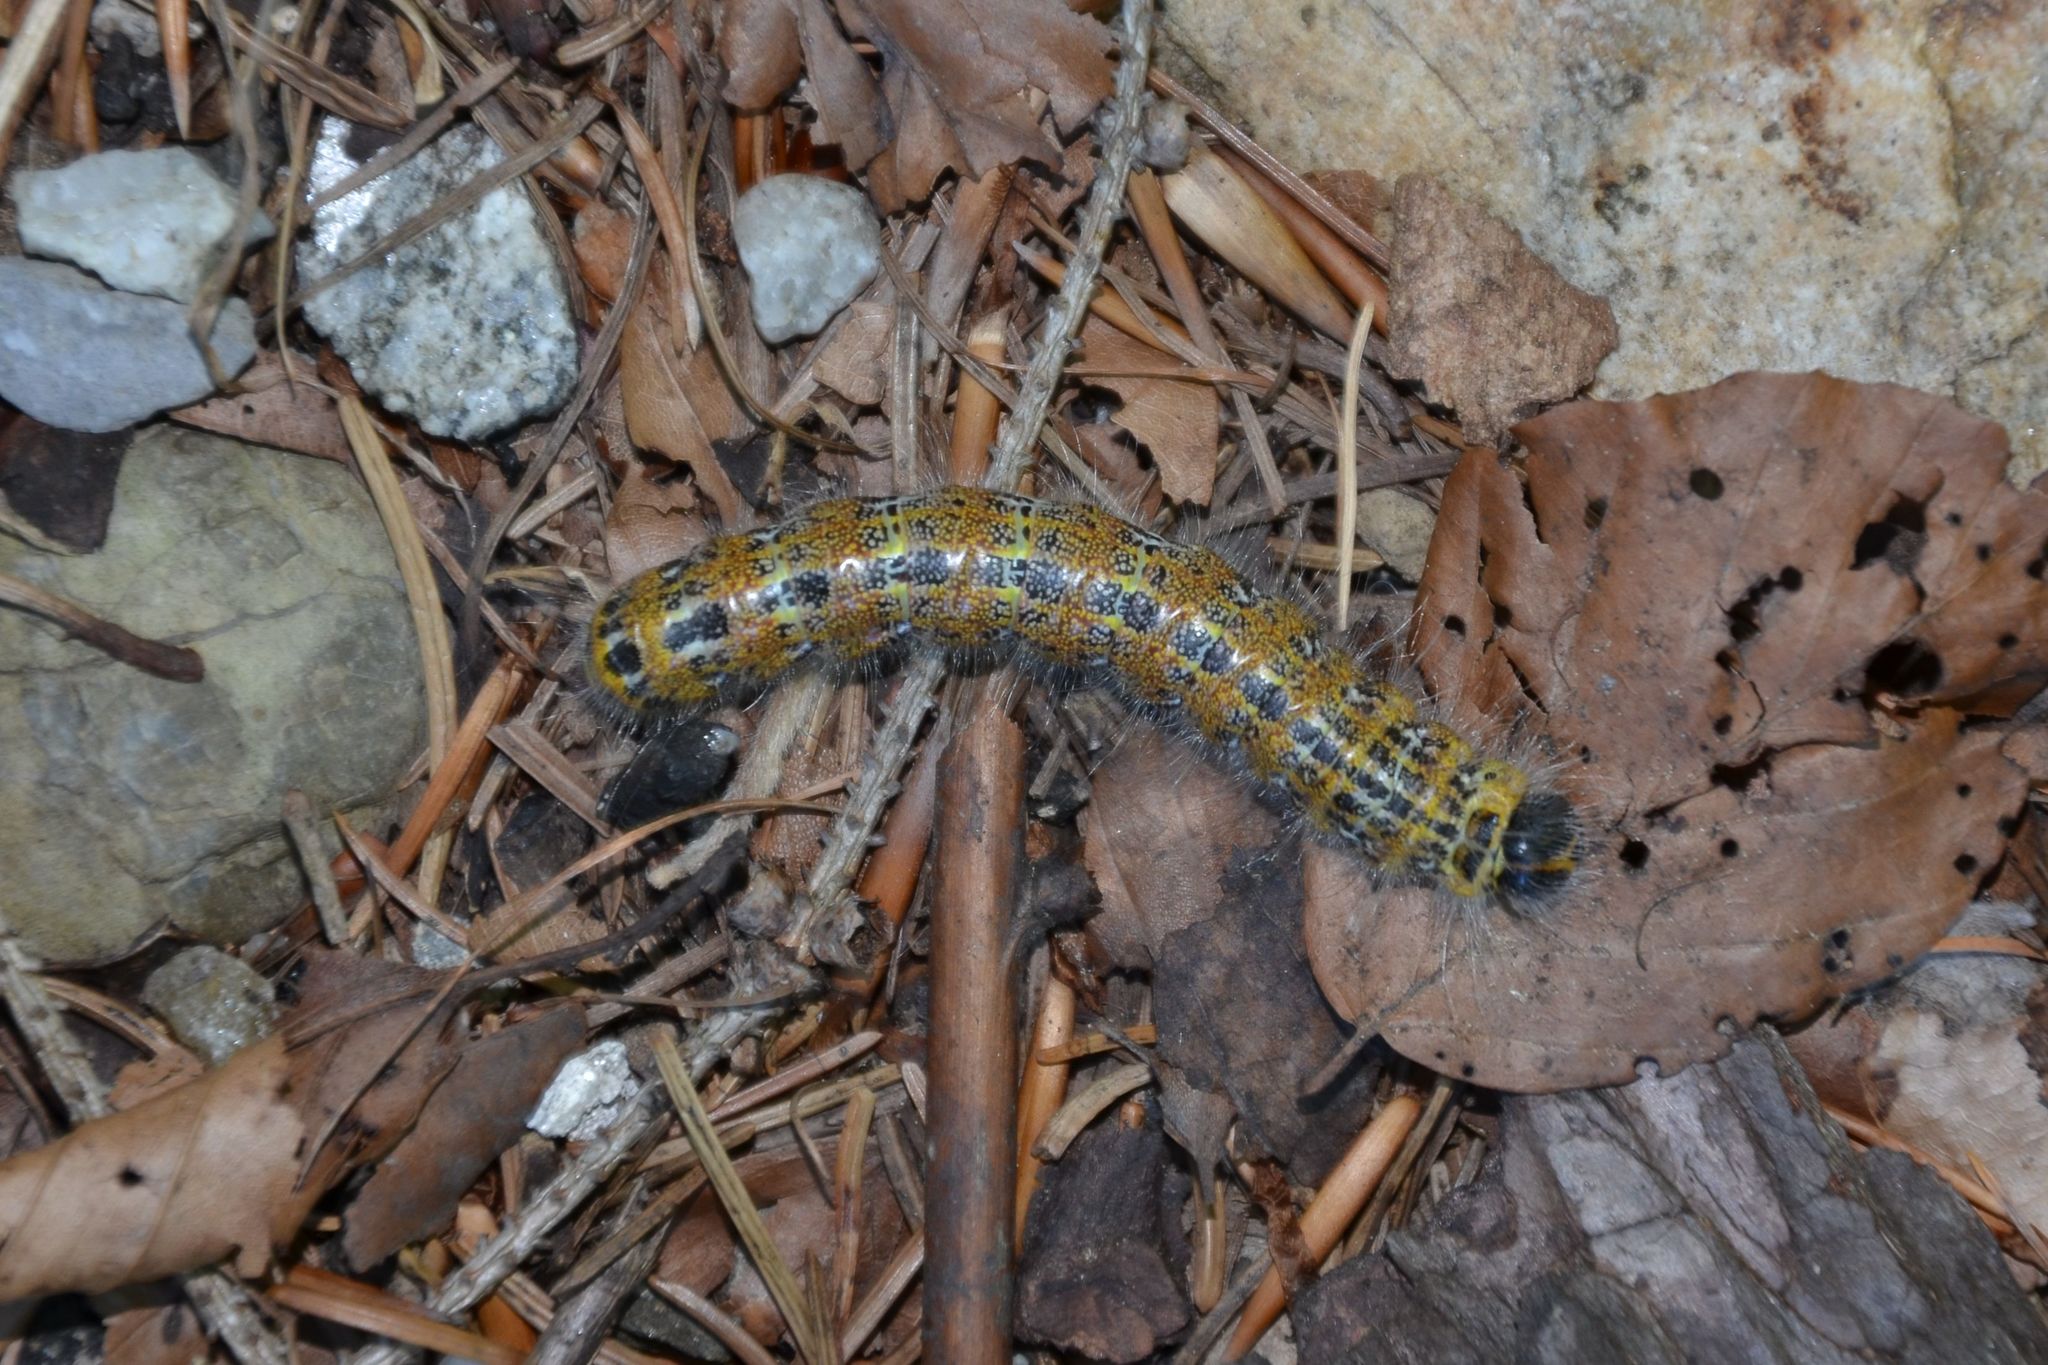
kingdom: Animalia
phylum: Arthropoda
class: Insecta
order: Lepidoptera
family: Notodontidae
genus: Phalera
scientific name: Phalera bucephala
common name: Buff-tip
